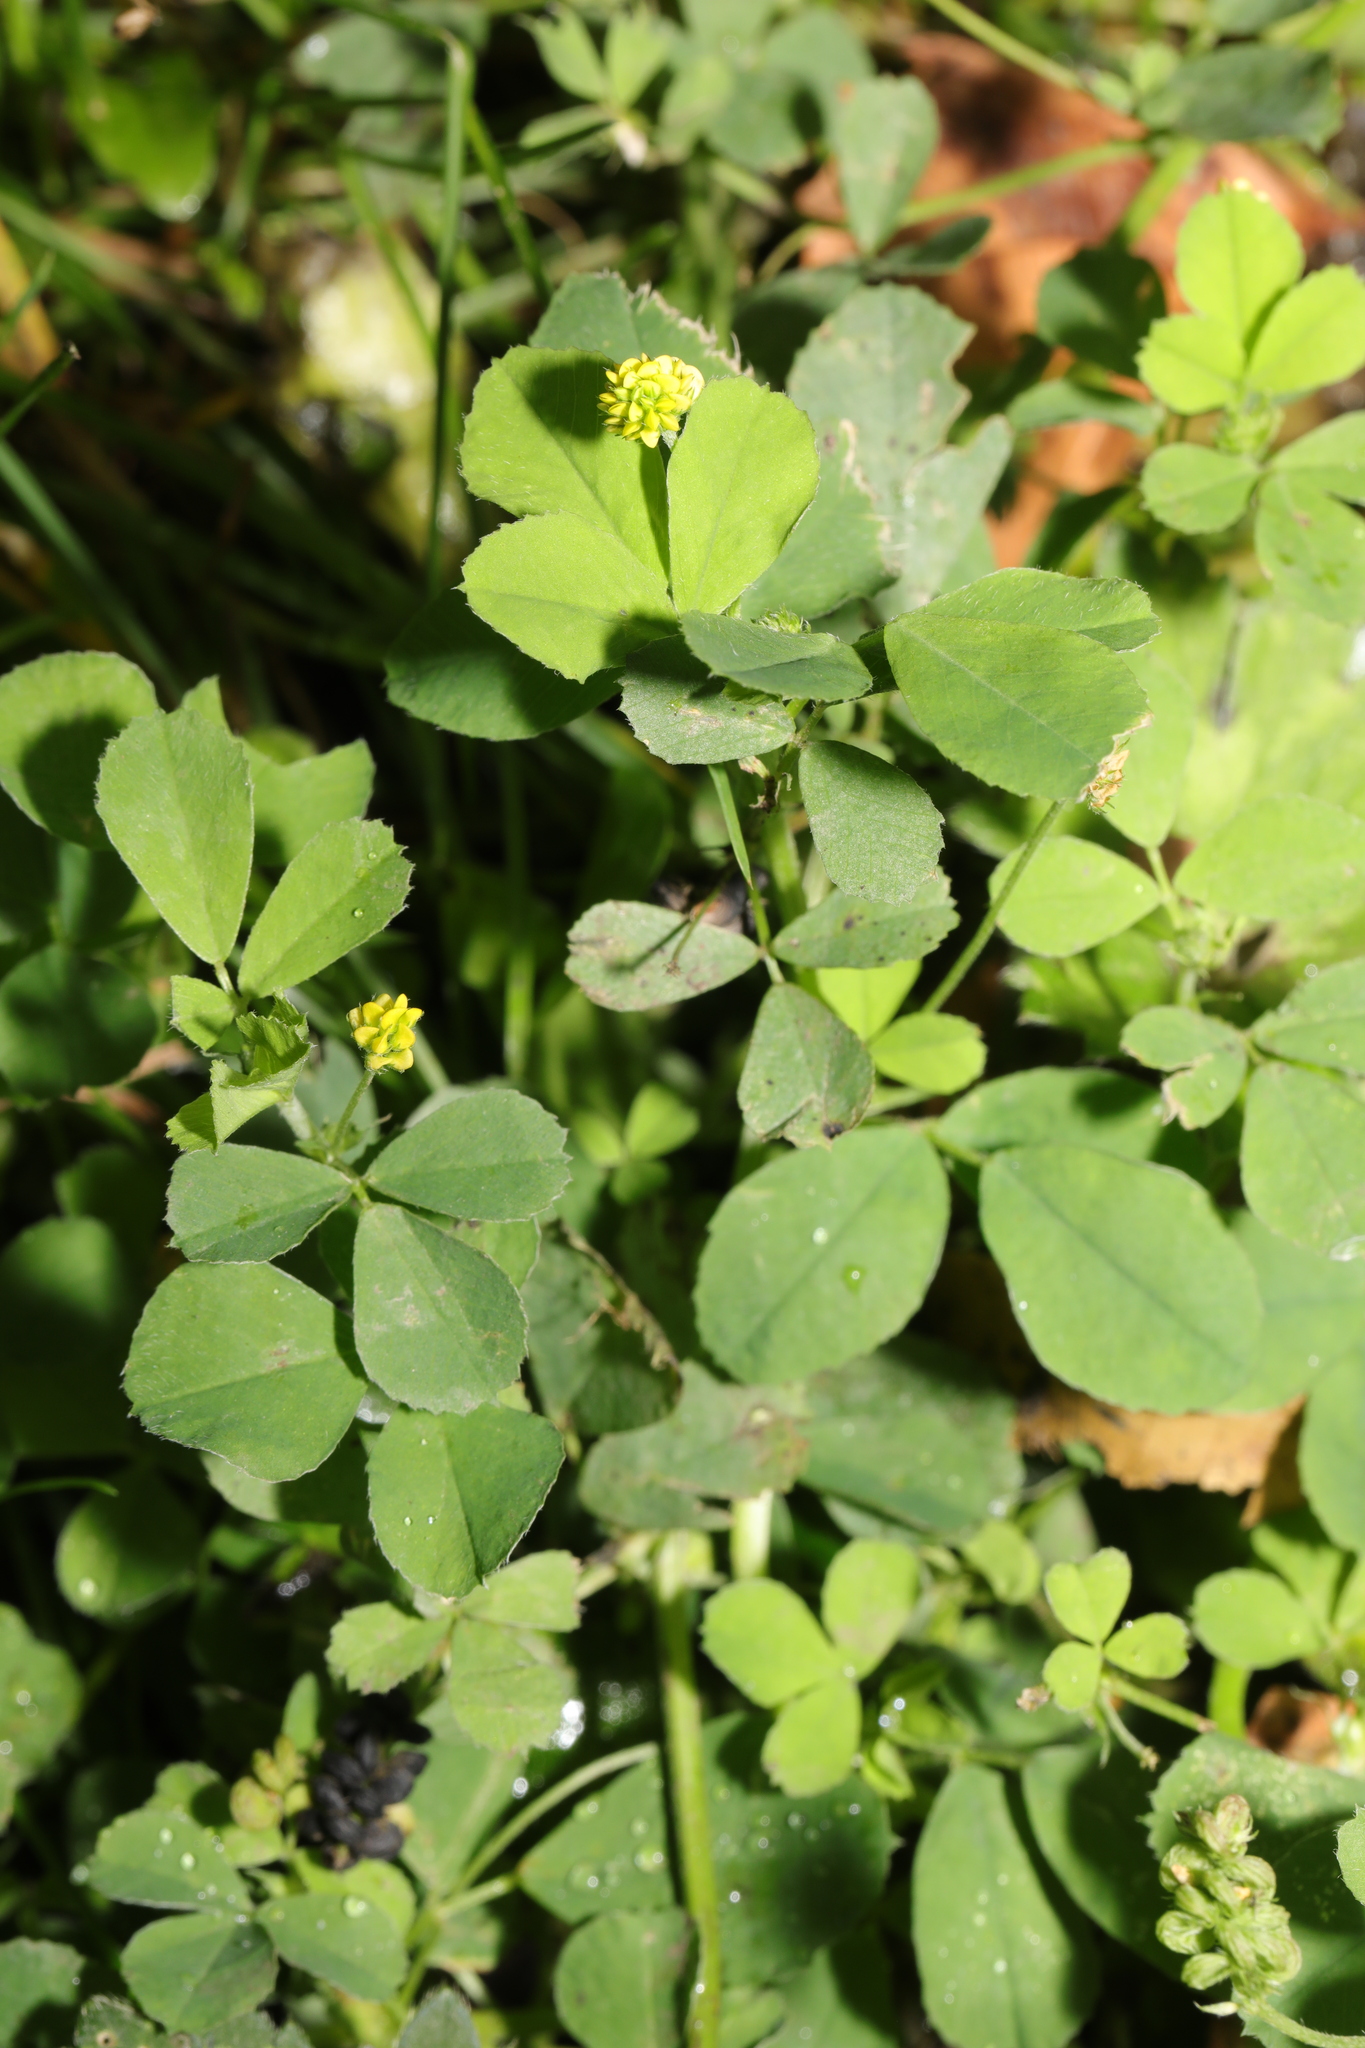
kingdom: Plantae
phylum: Tracheophyta
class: Magnoliopsida
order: Fabales
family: Fabaceae
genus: Medicago
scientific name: Medicago lupulina
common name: Black medick
